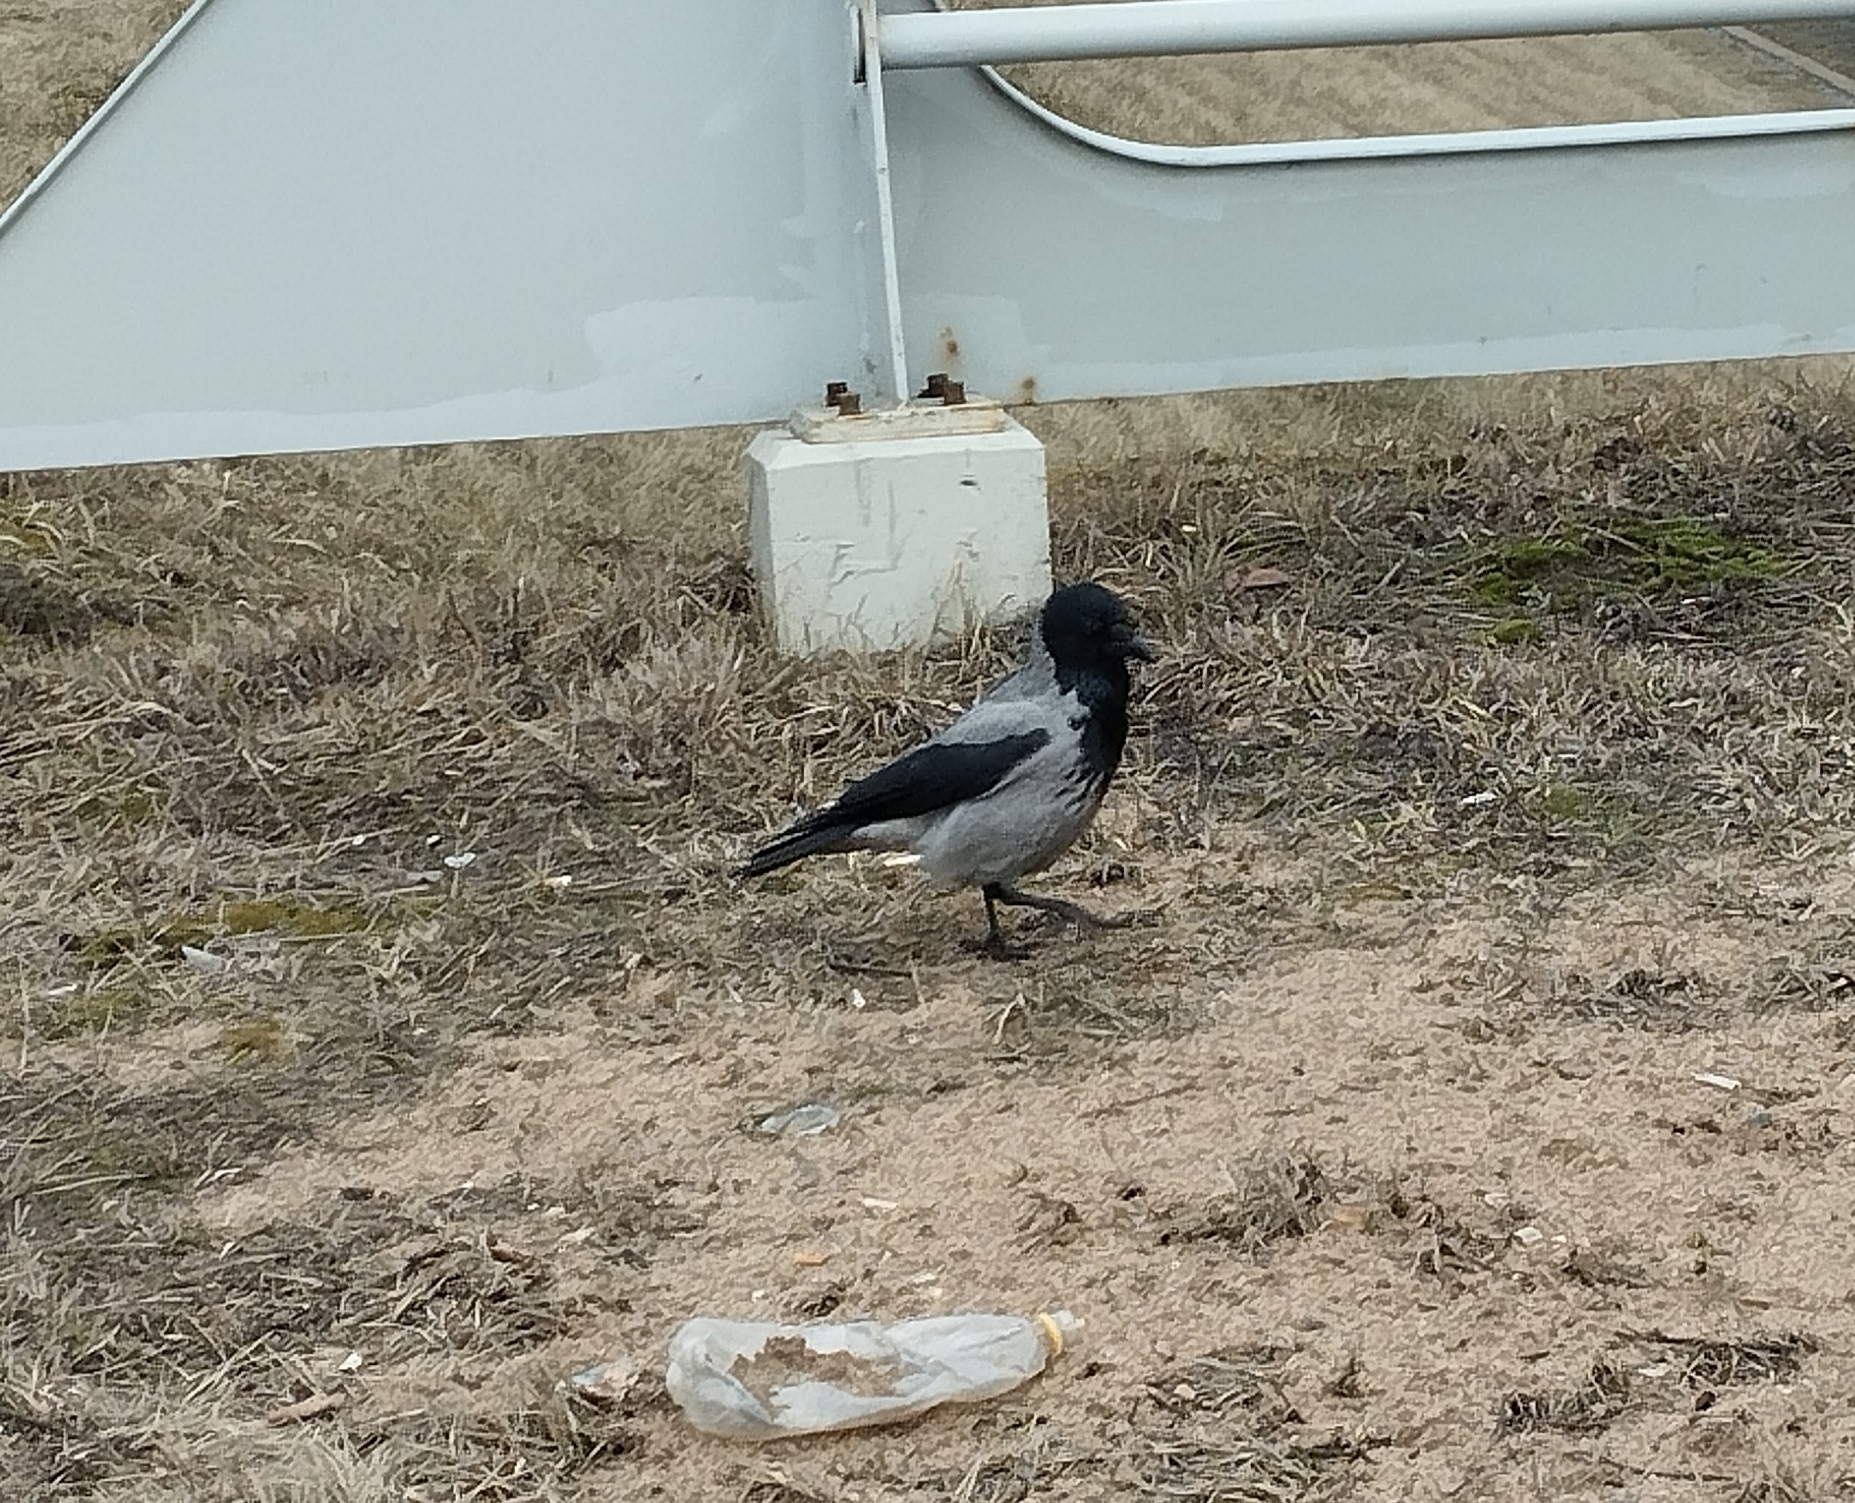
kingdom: Animalia
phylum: Chordata
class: Aves
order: Passeriformes
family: Corvidae
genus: Corvus
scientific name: Corvus cornix
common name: Hooded crow
